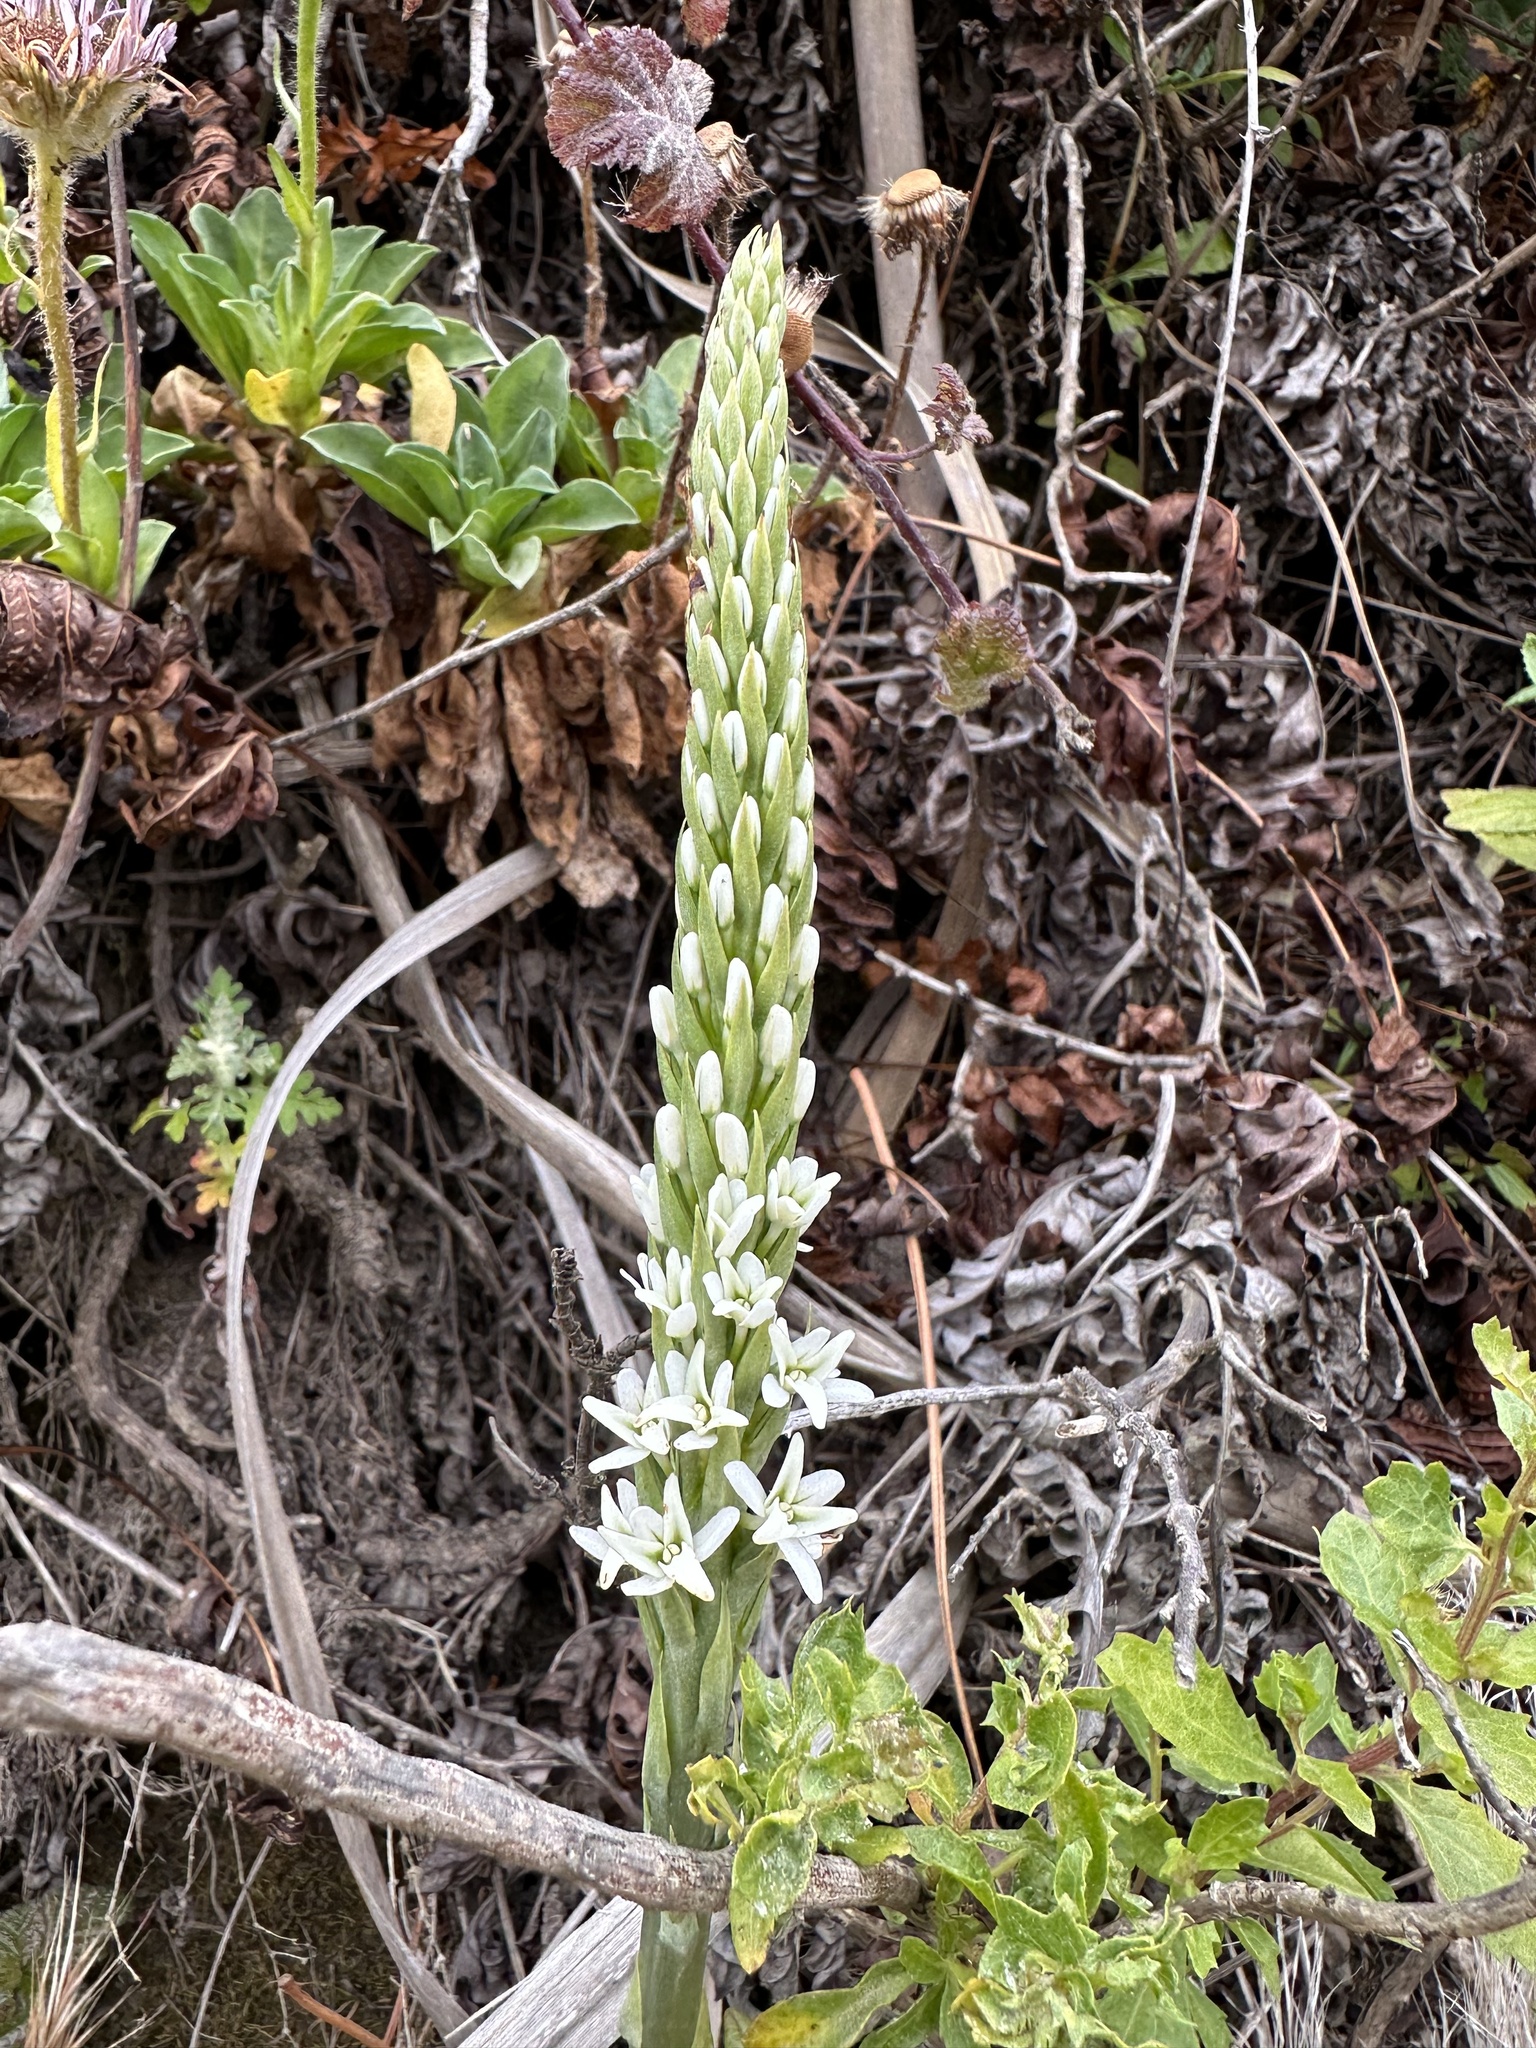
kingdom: Plantae
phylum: Tracheophyta
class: Liliopsida
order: Asparagales
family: Orchidaceae
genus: Platanthera
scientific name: Platanthera elegans
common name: Coast piperia
